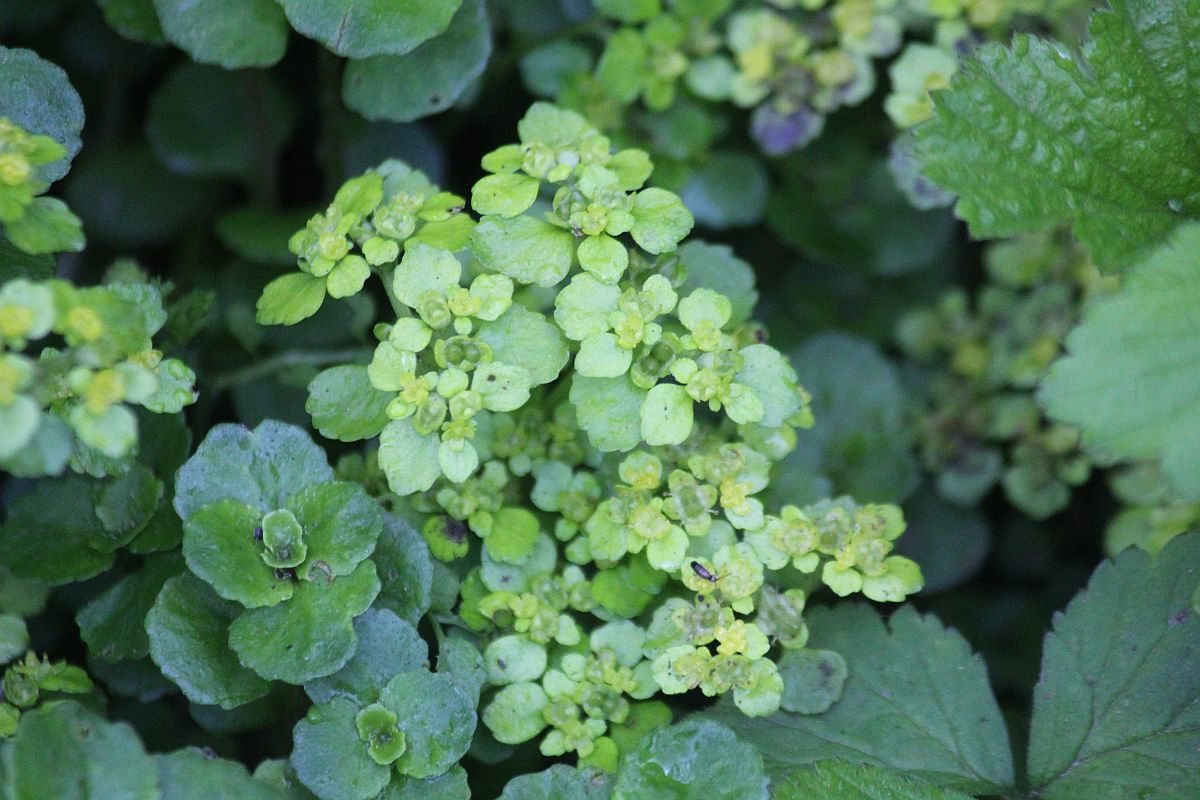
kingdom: Plantae
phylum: Tracheophyta
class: Magnoliopsida
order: Saxifragales
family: Saxifragaceae
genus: Chrysosplenium
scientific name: Chrysosplenium oppositifolium
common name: Opposite-leaved golden-saxifrage
